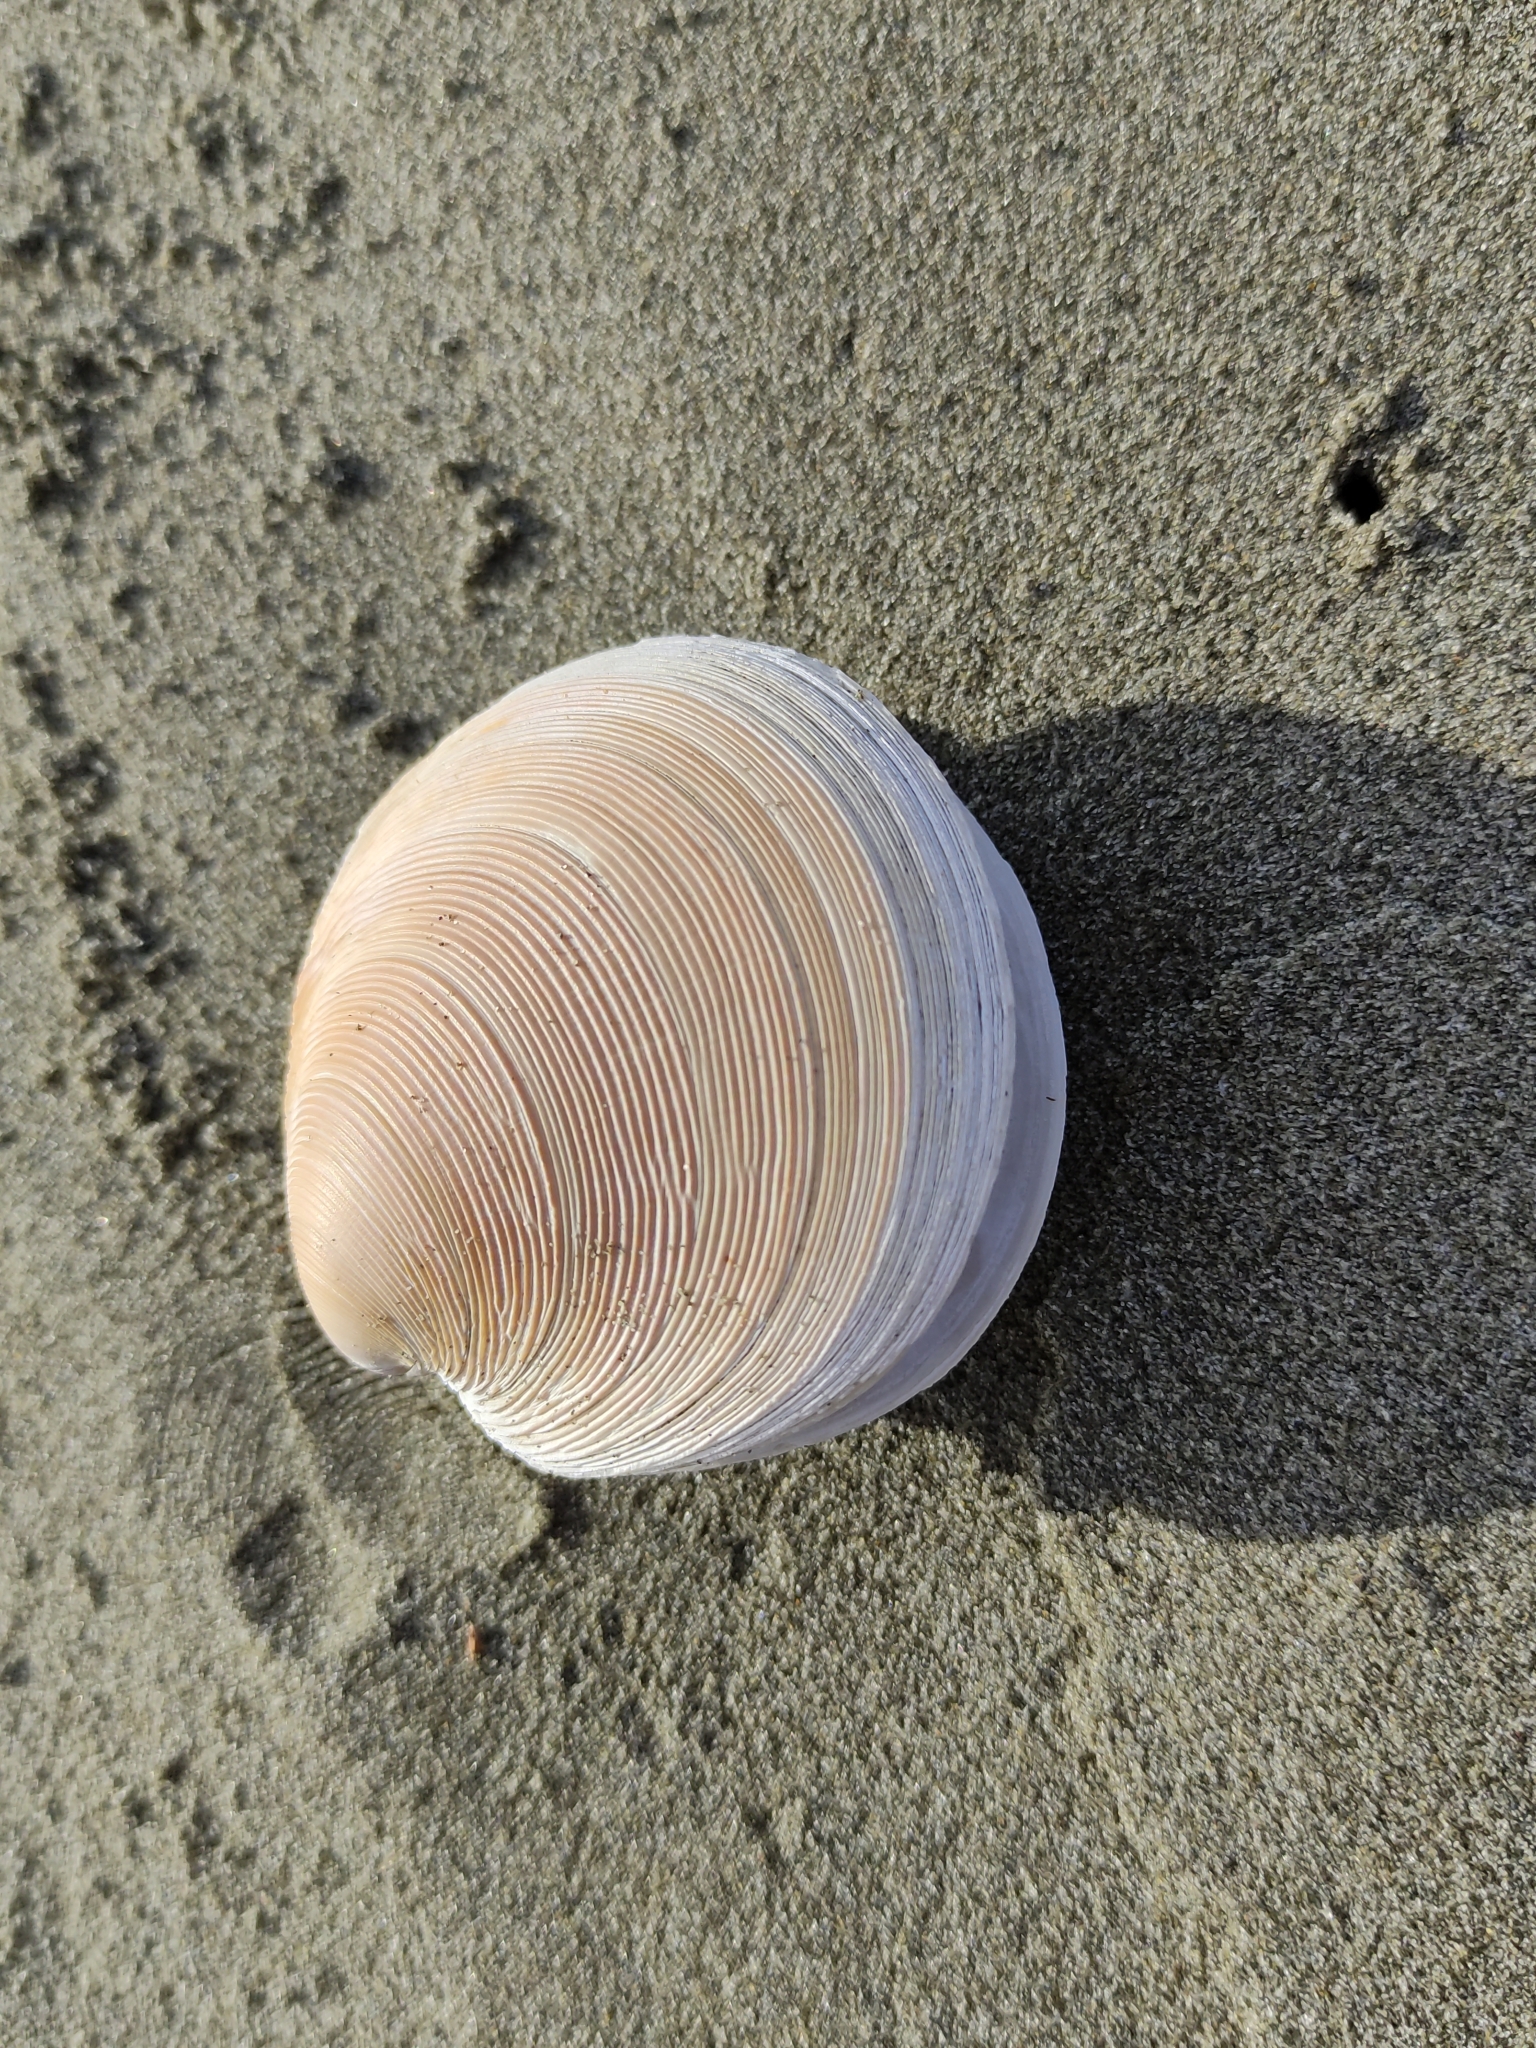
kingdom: Animalia
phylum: Mollusca
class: Bivalvia
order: Venerida
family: Veneridae
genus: Dosinia
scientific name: Dosinia anus
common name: Old-woman dosinia
